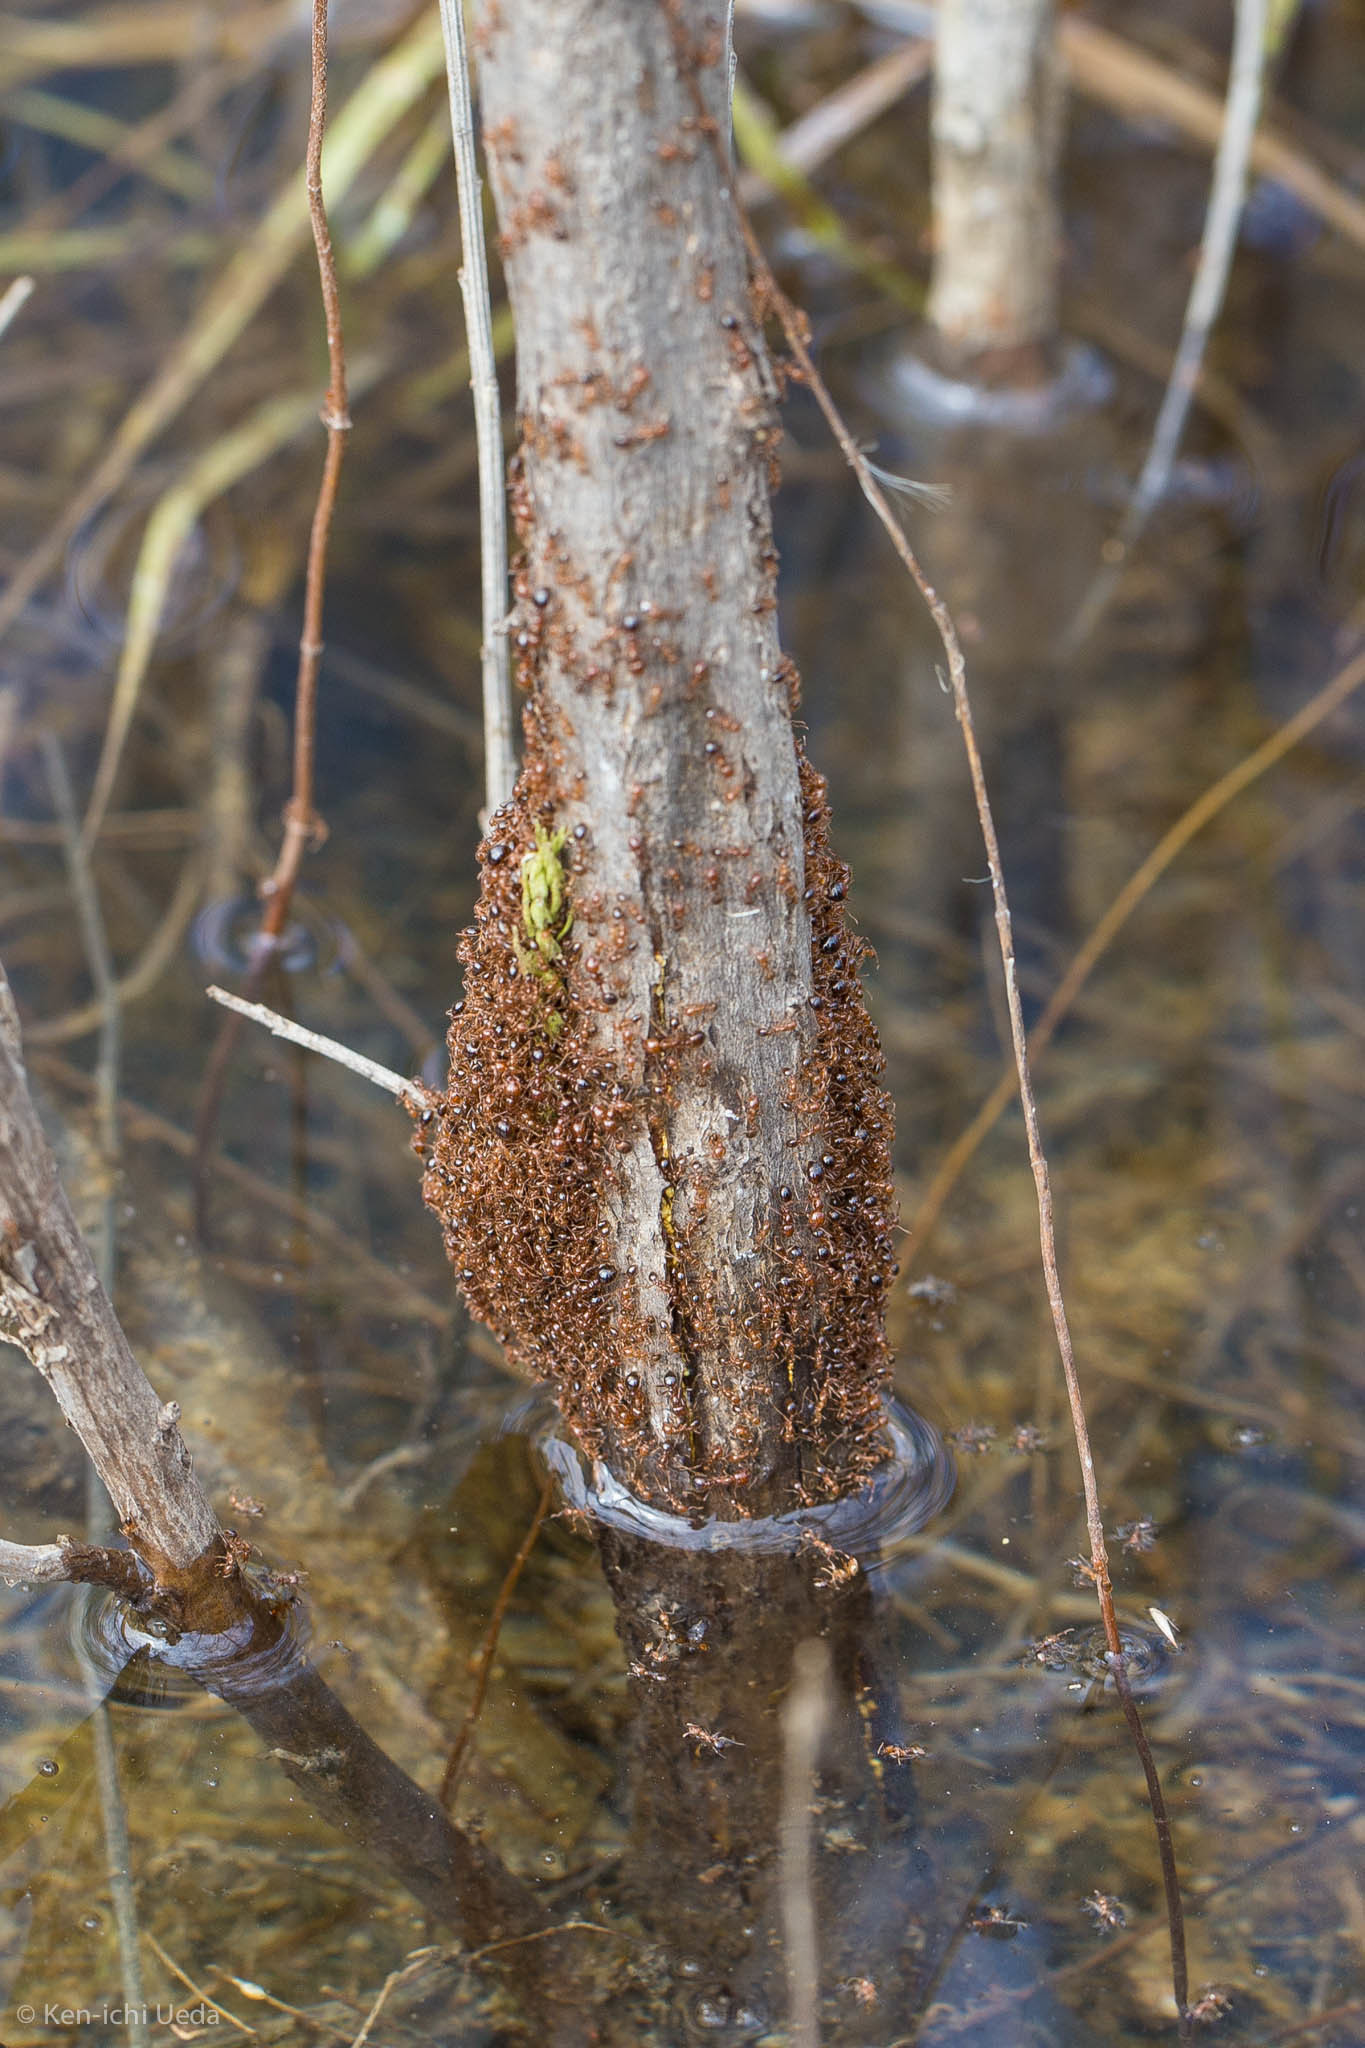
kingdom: Animalia
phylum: Arthropoda
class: Insecta
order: Hymenoptera
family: Formicidae
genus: Solenopsis
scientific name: Solenopsis invicta
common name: Red imported fire ant
